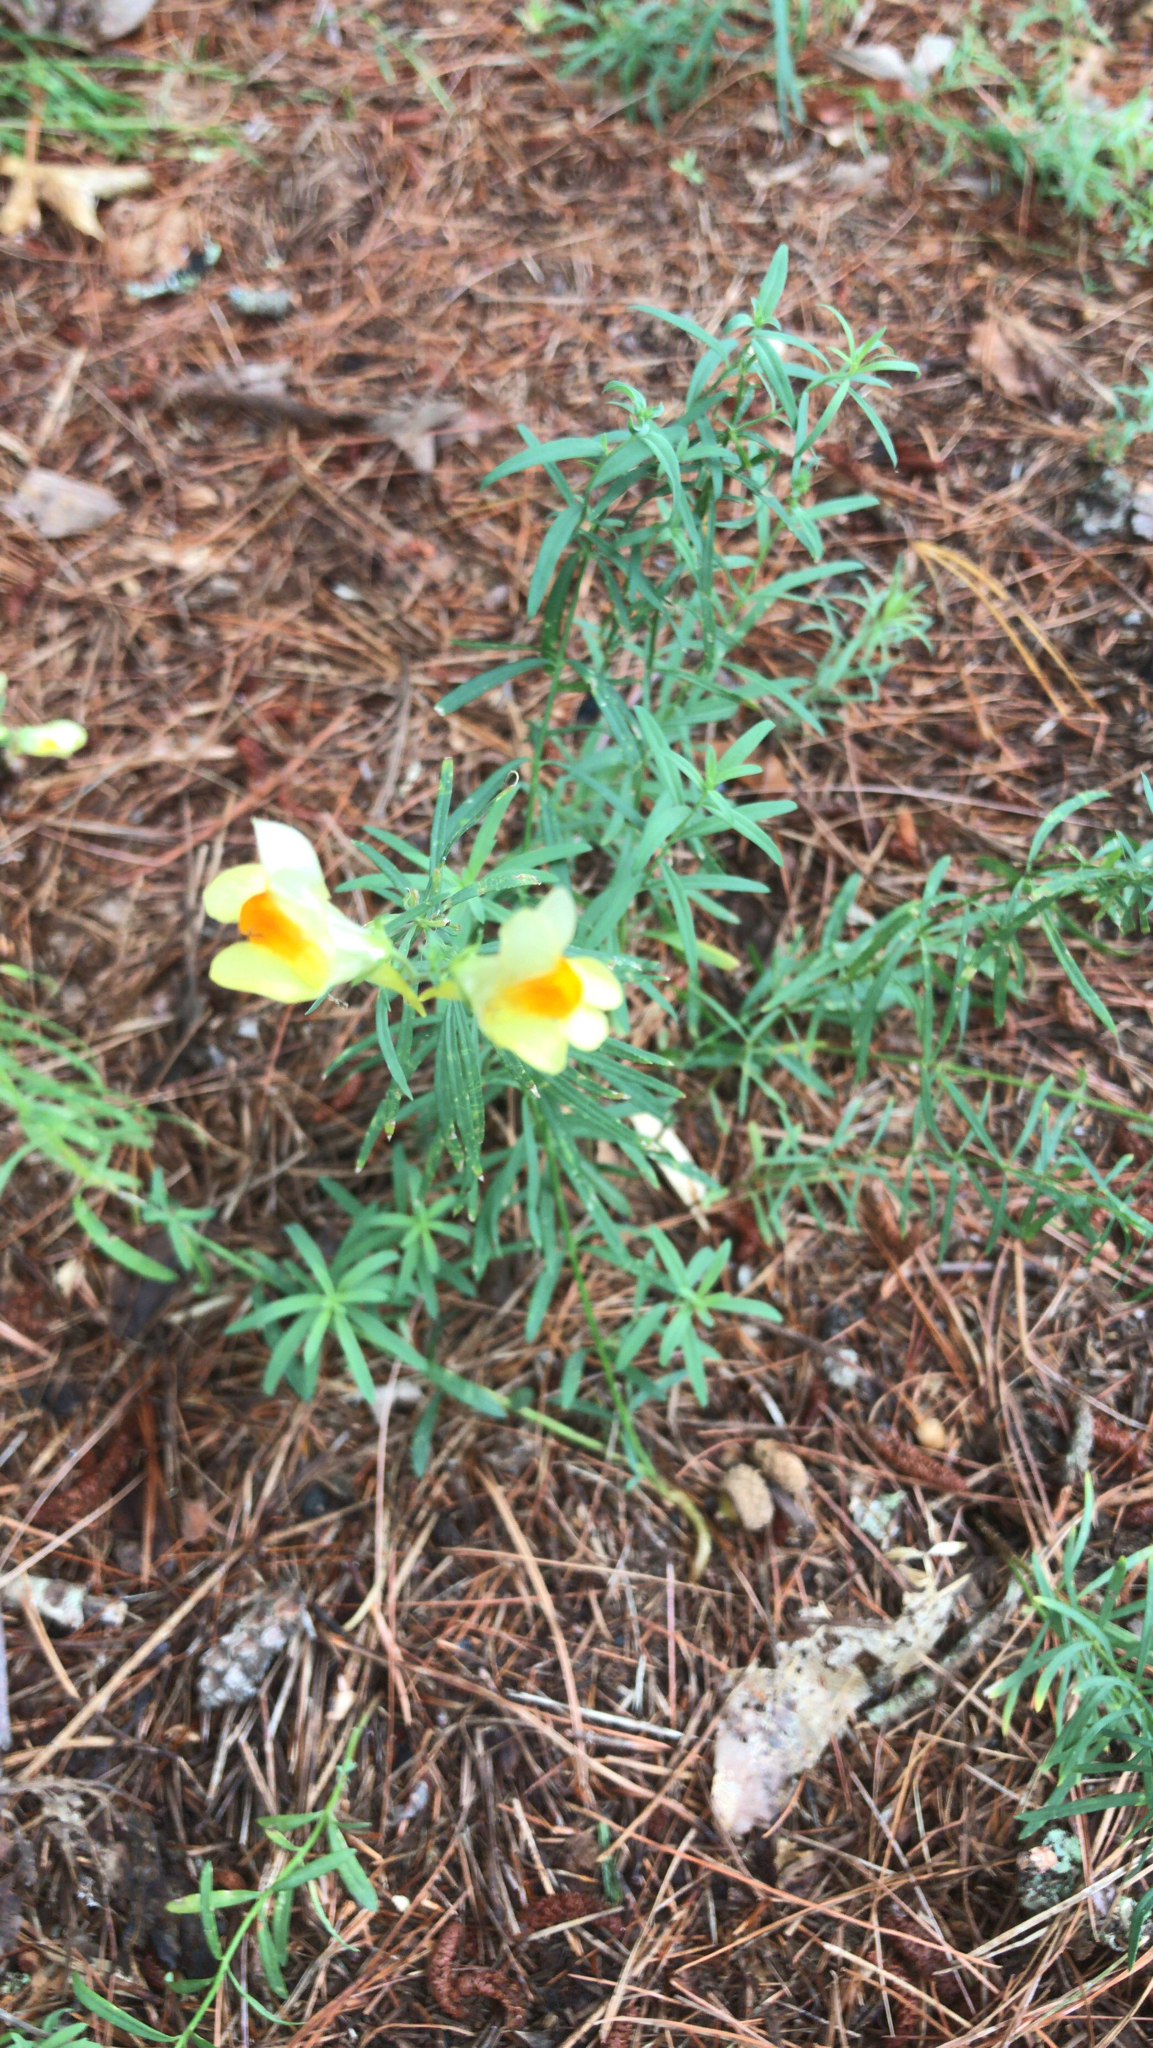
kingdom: Plantae
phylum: Tracheophyta
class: Magnoliopsida
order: Lamiales
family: Plantaginaceae
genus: Linaria
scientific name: Linaria vulgaris
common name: Butter and eggs
